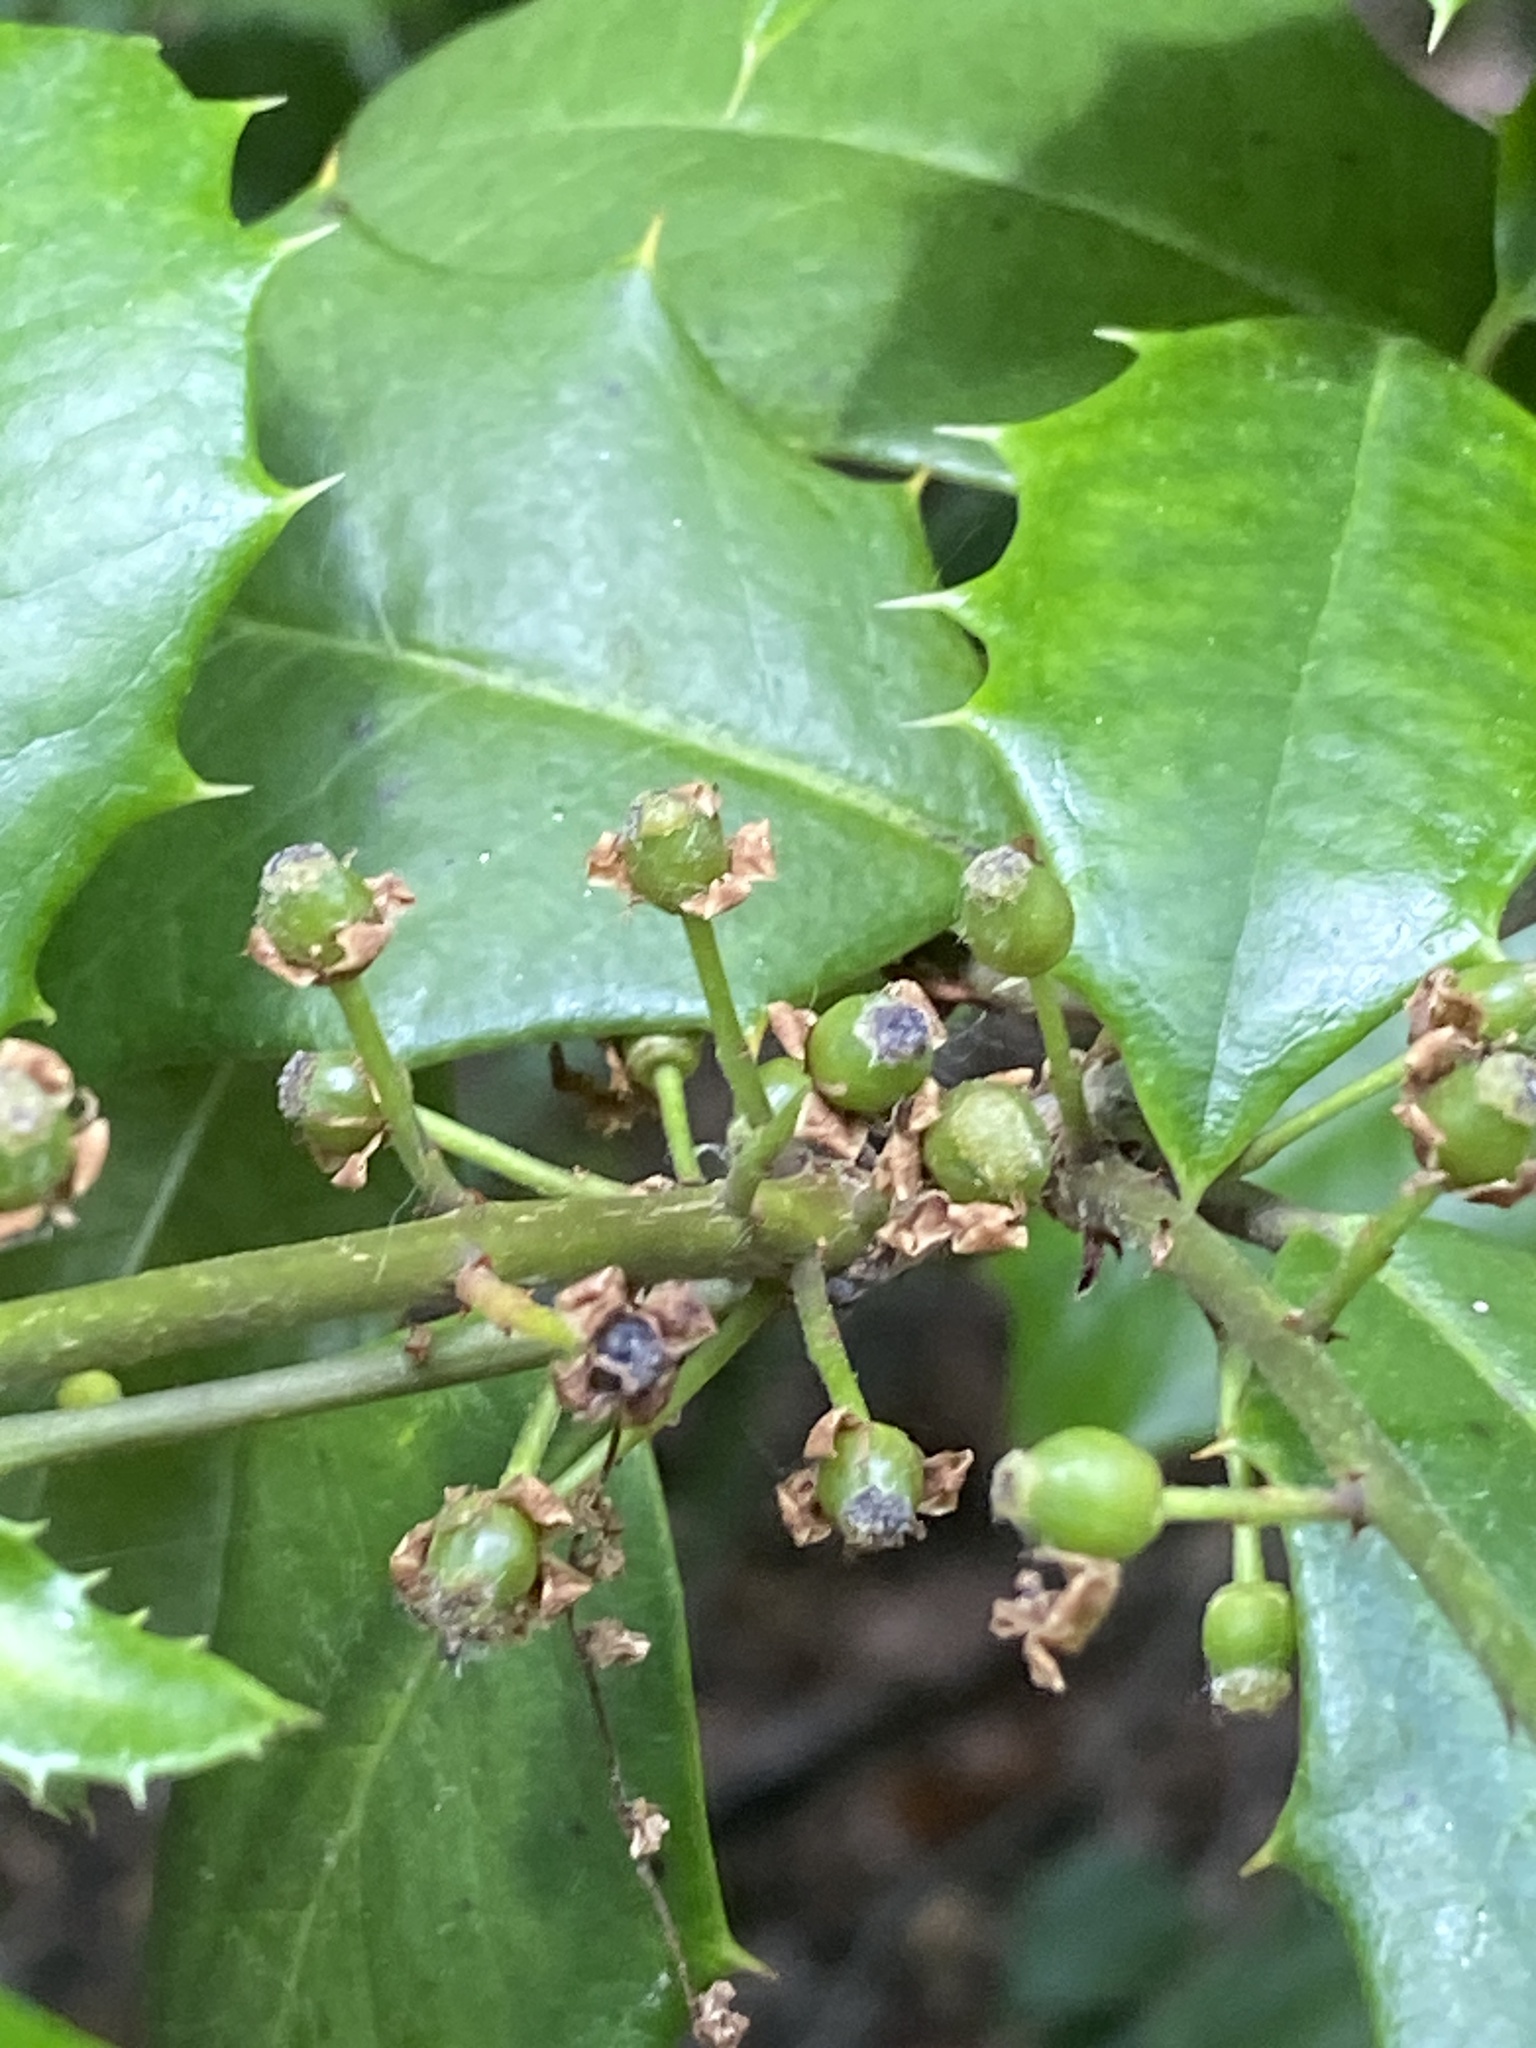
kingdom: Plantae
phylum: Tracheophyta
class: Magnoliopsida
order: Aquifoliales
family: Aquifoliaceae
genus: Ilex
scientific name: Ilex opaca
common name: American holly
